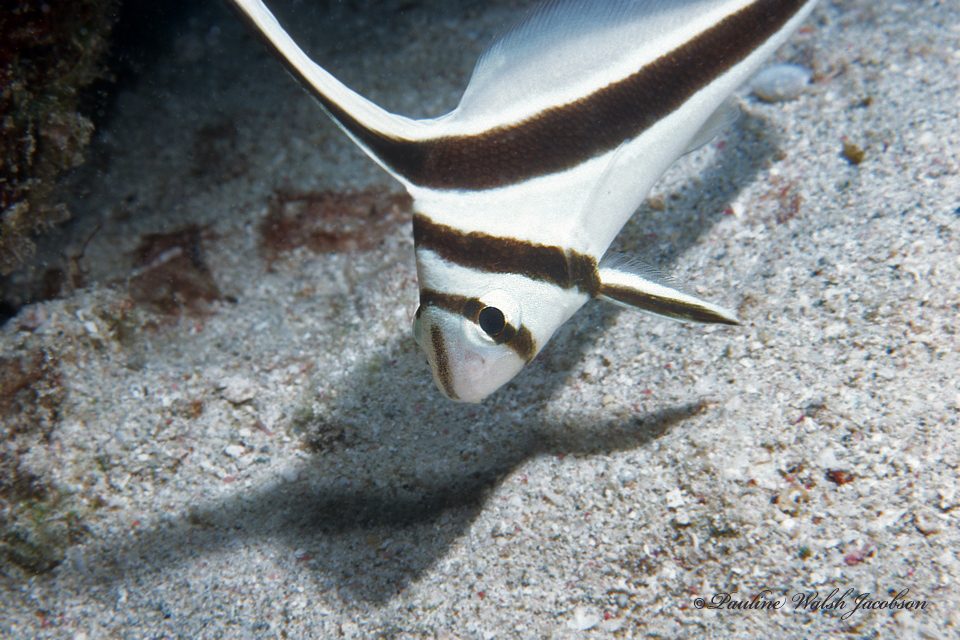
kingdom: Animalia
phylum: Chordata
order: Perciformes
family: Sciaenidae
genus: Equetus
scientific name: Equetus lanceolatus
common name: Jackknife fish
